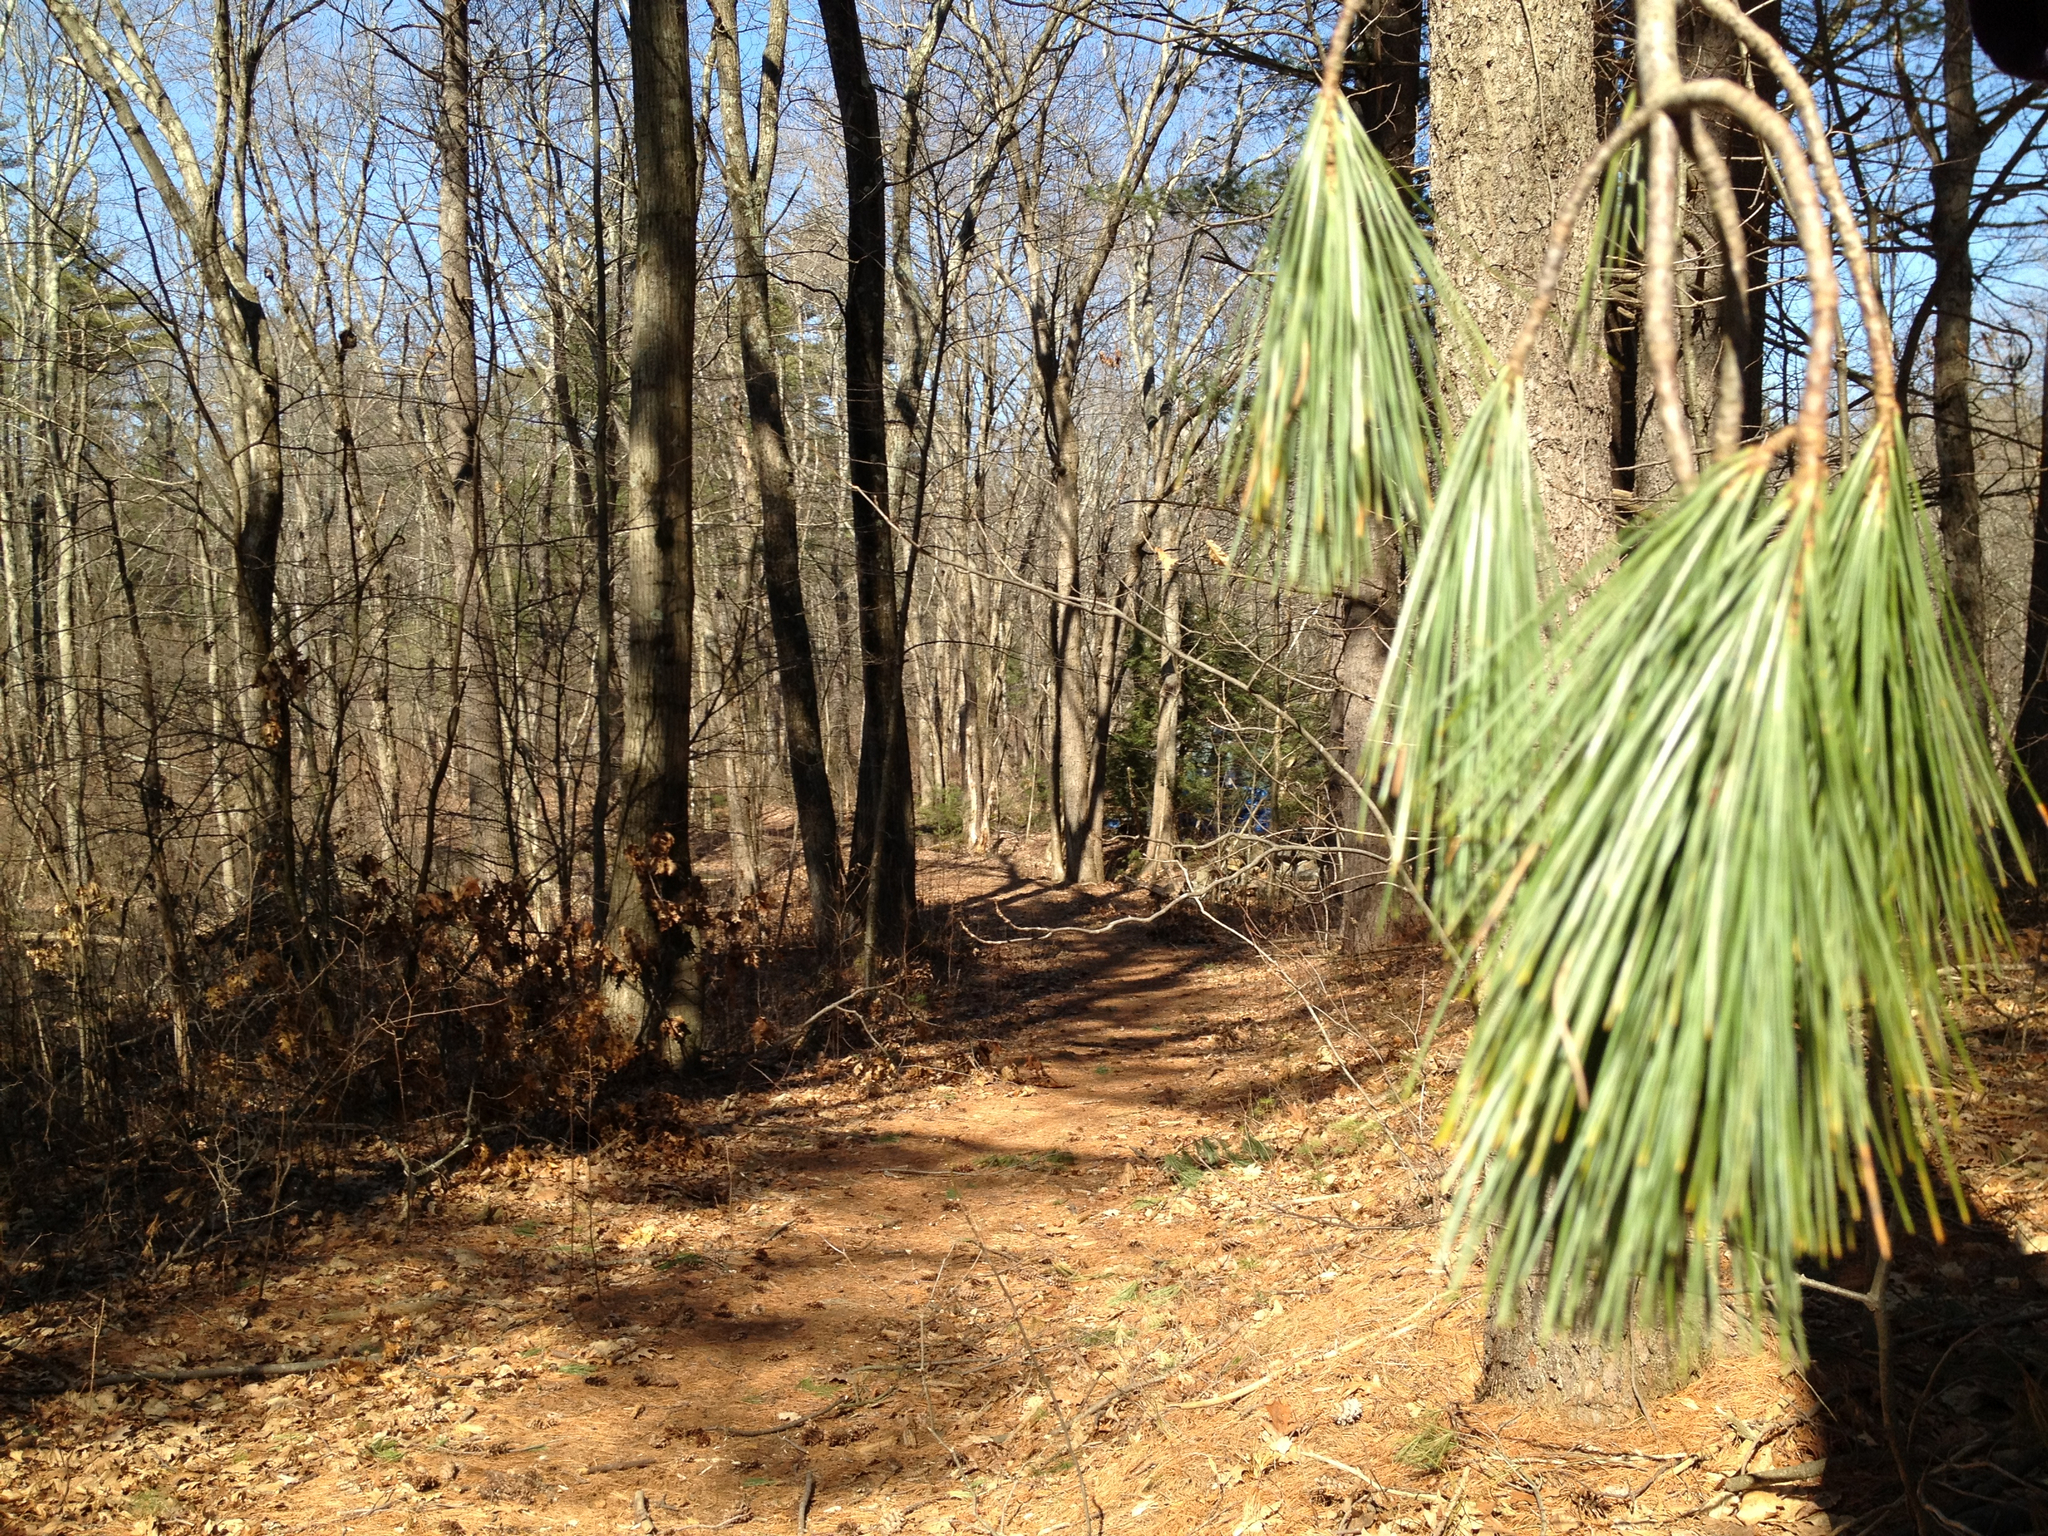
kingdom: Plantae
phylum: Tracheophyta
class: Pinopsida
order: Pinales
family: Pinaceae
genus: Pinus
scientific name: Pinus strobus
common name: Weymouth pine
